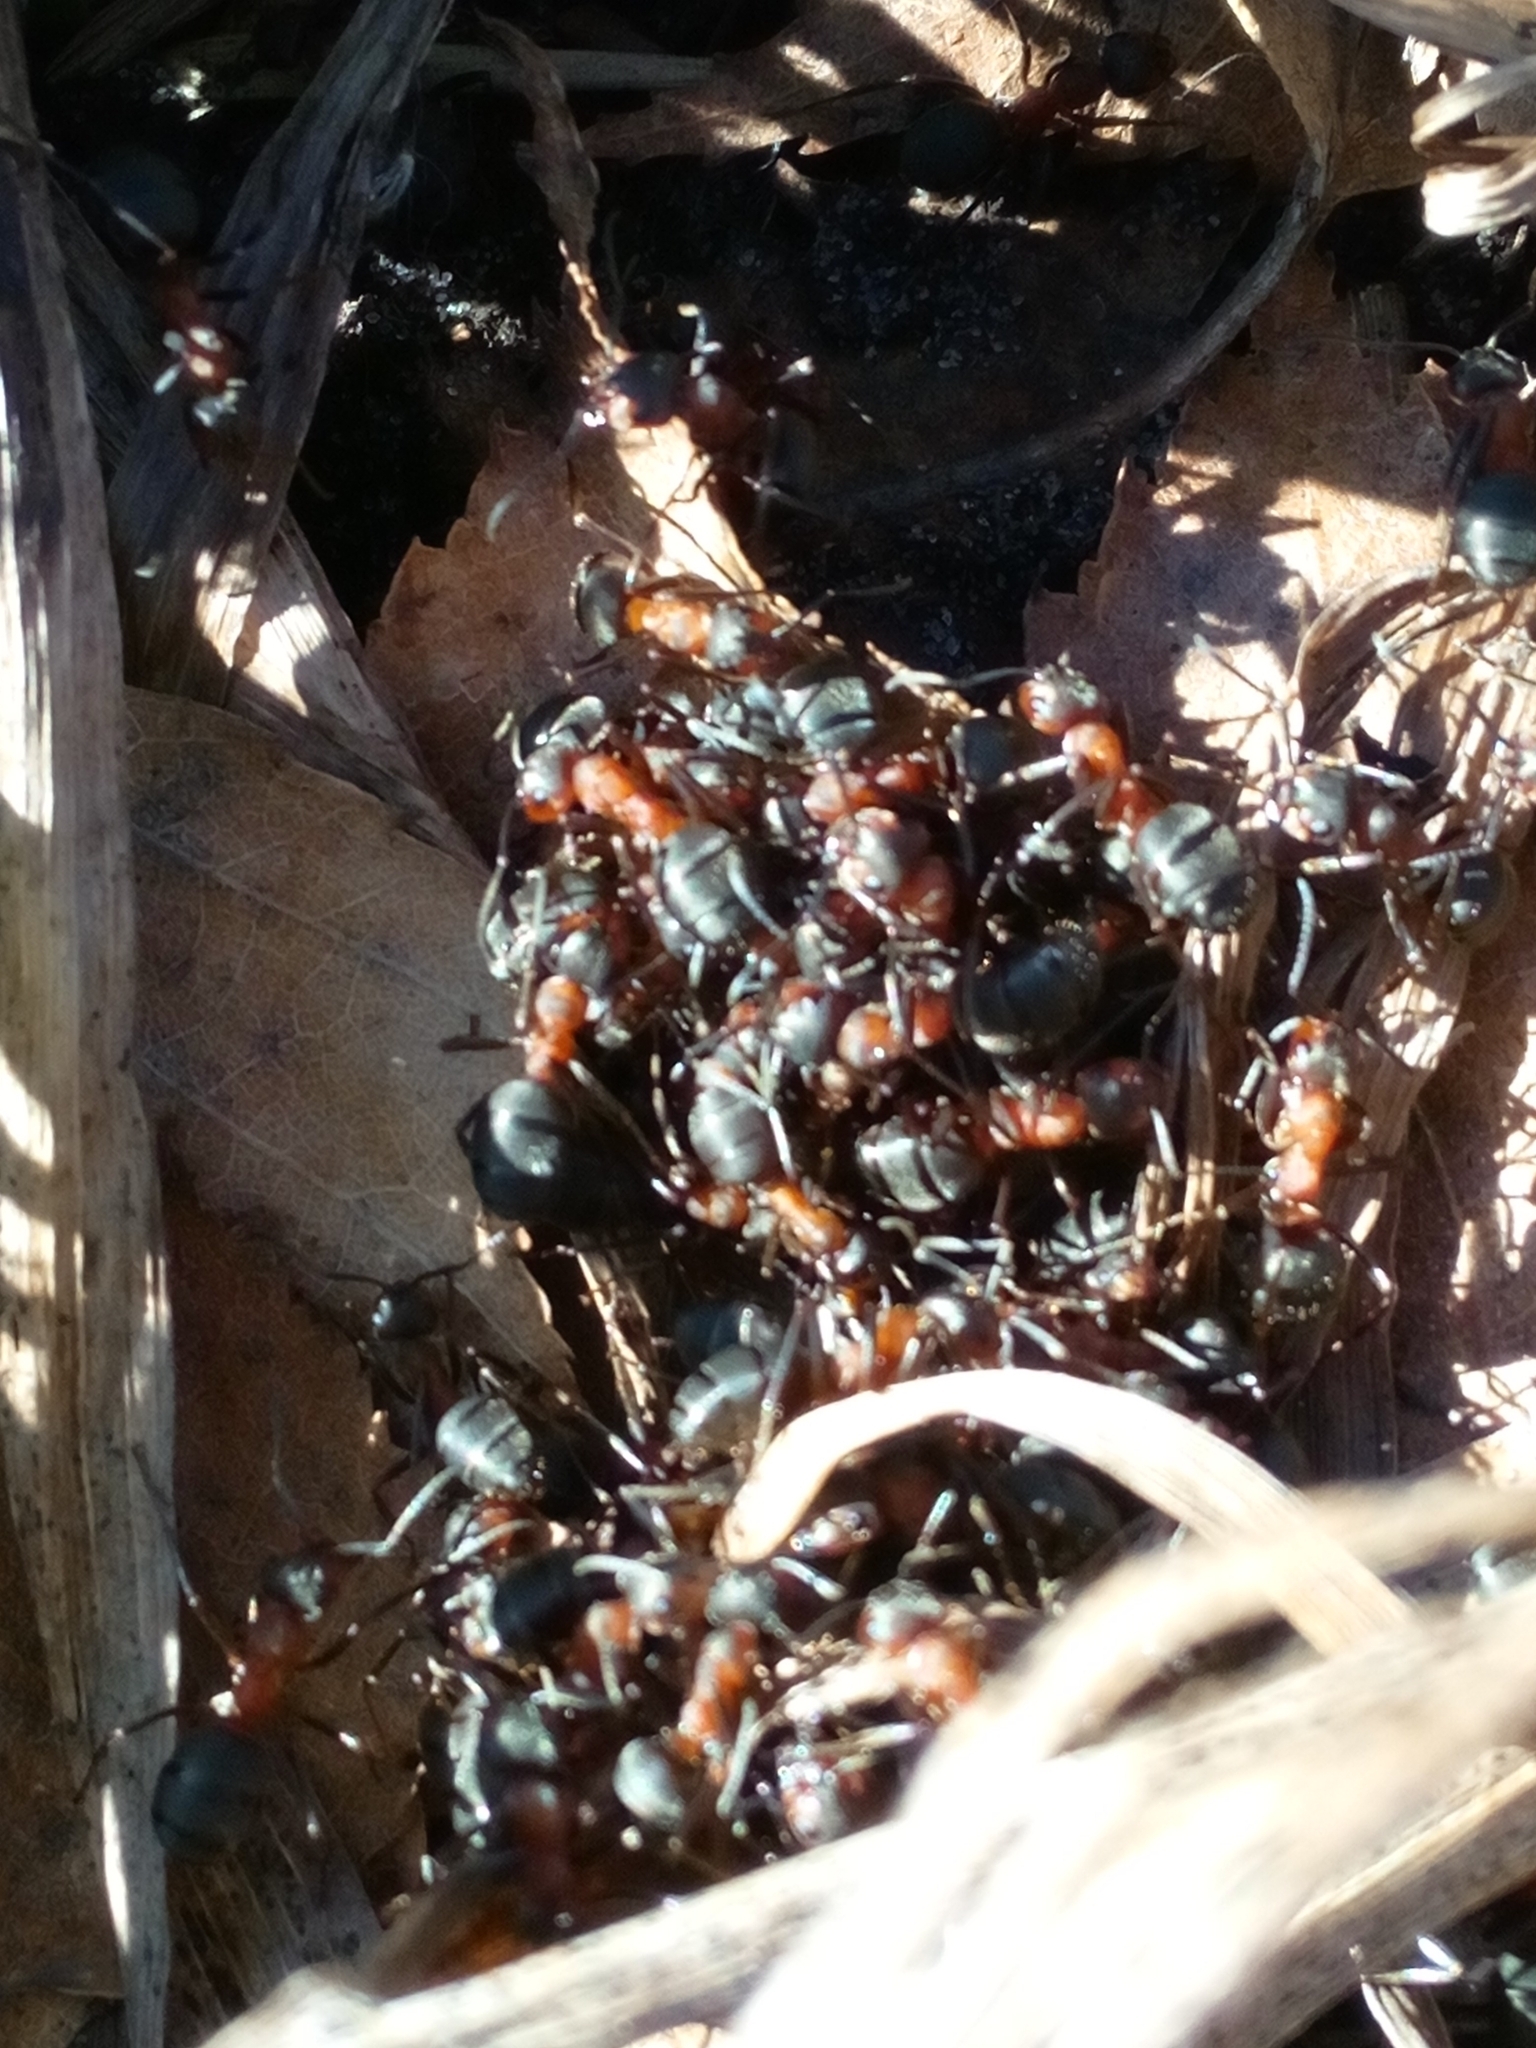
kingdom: Animalia
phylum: Arthropoda
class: Insecta
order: Hymenoptera
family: Formicidae
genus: Formica
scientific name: Formica
